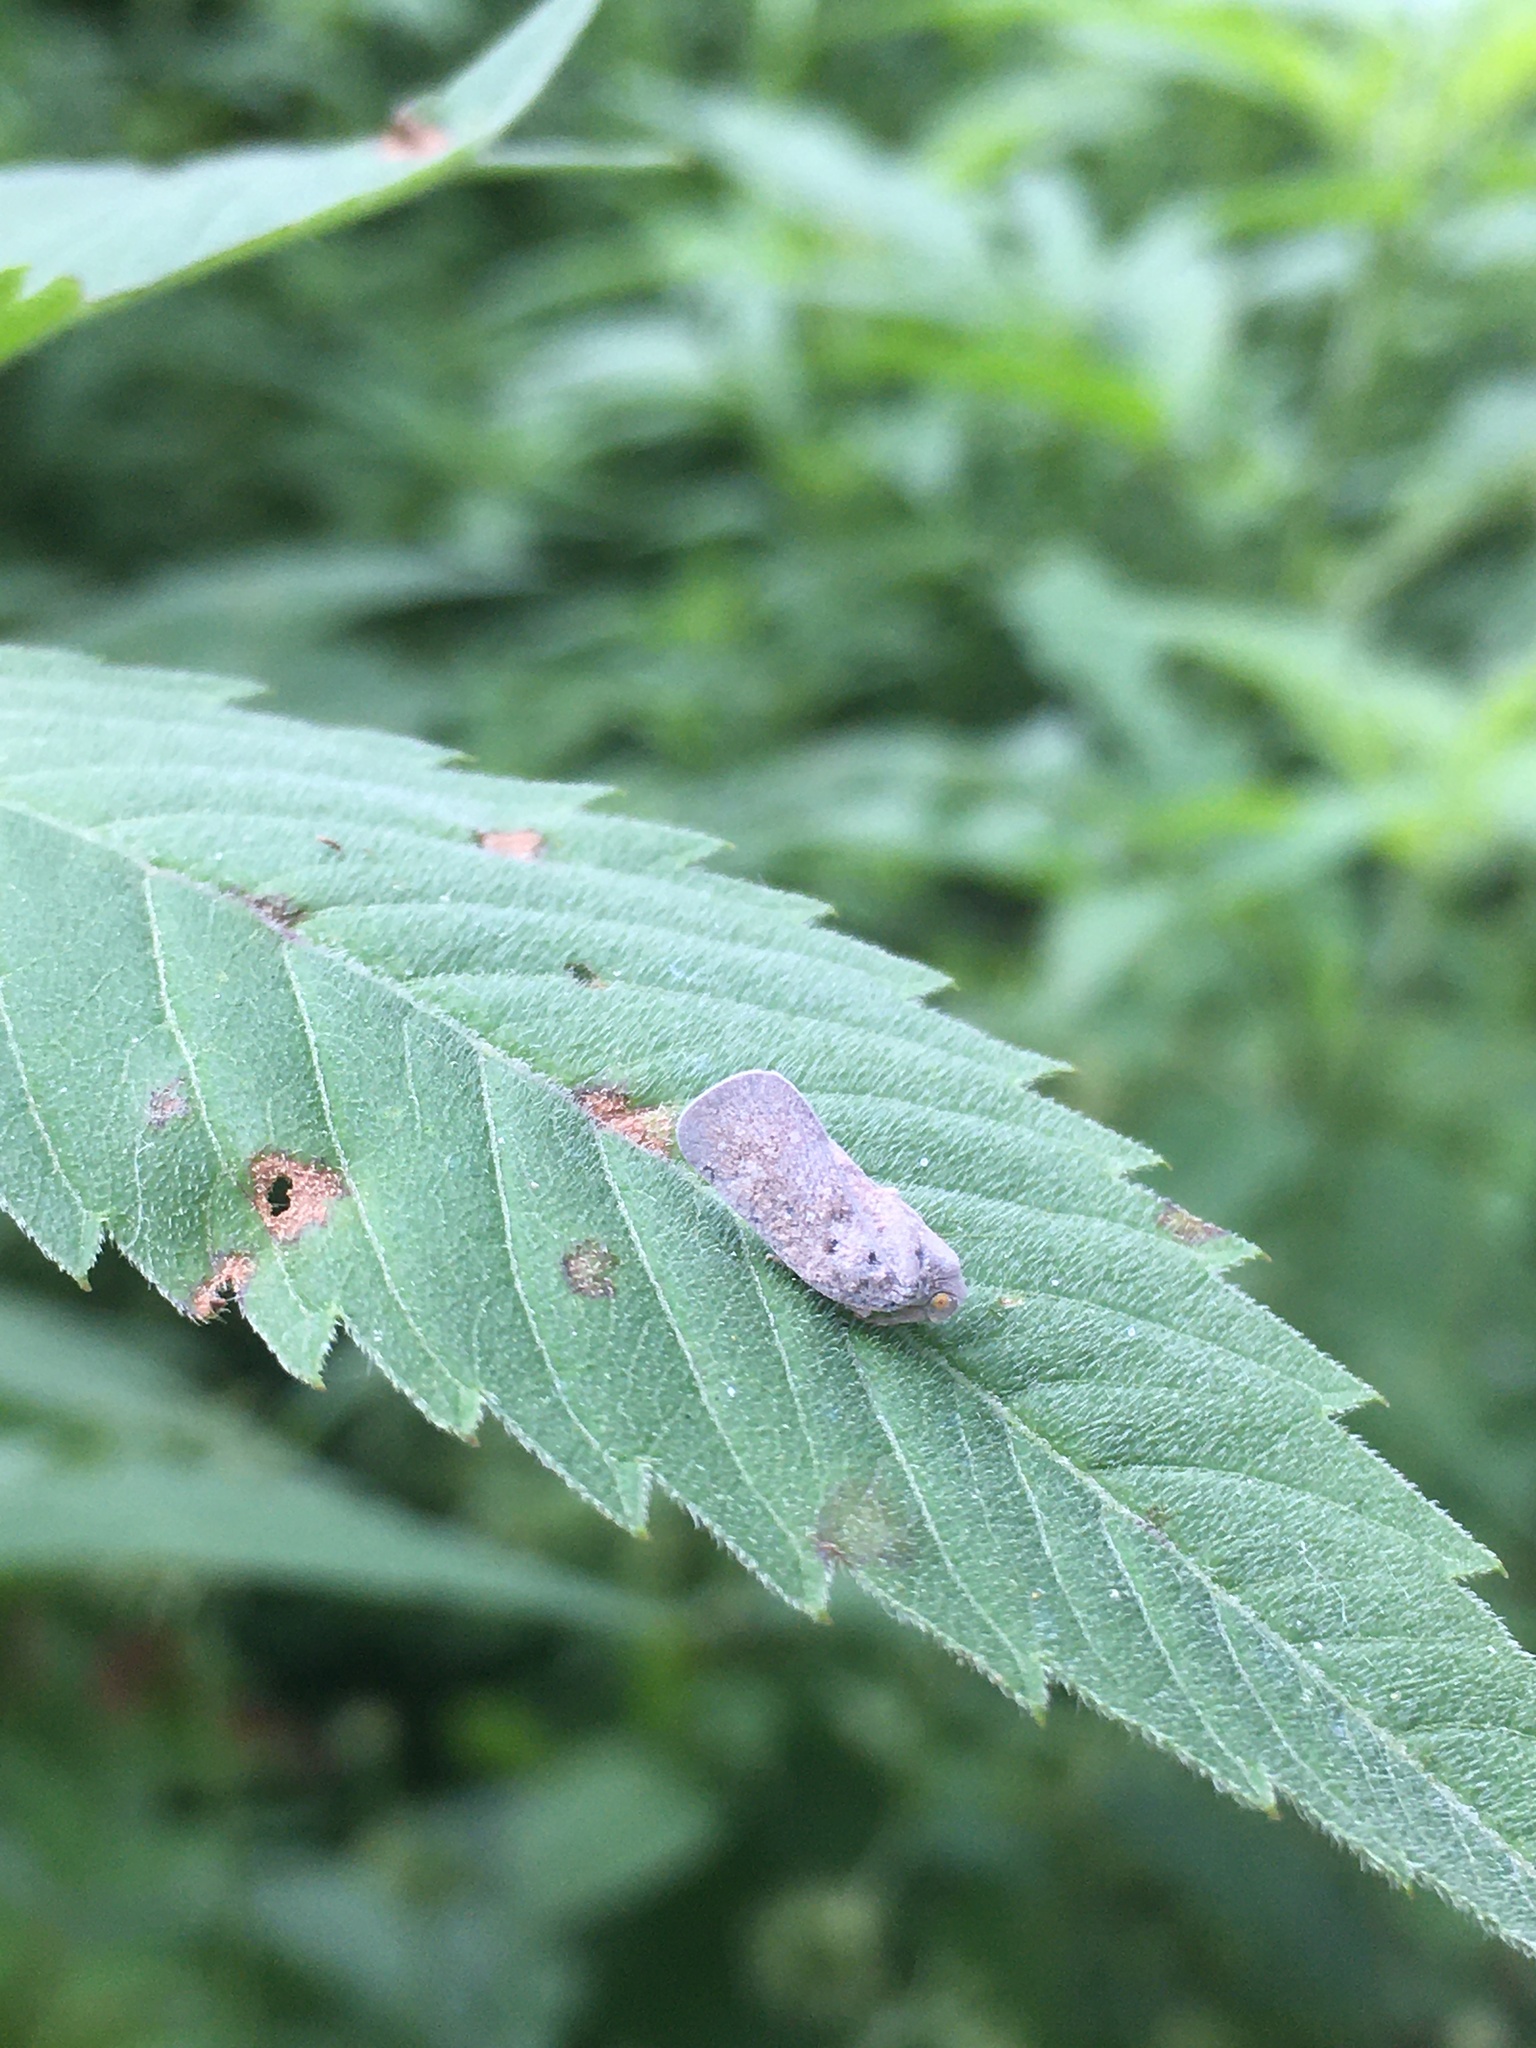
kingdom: Animalia
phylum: Arthropoda
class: Insecta
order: Hemiptera
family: Flatidae
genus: Metcalfa
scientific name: Metcalfa pruinosa
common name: Citrus flatid planthopper
